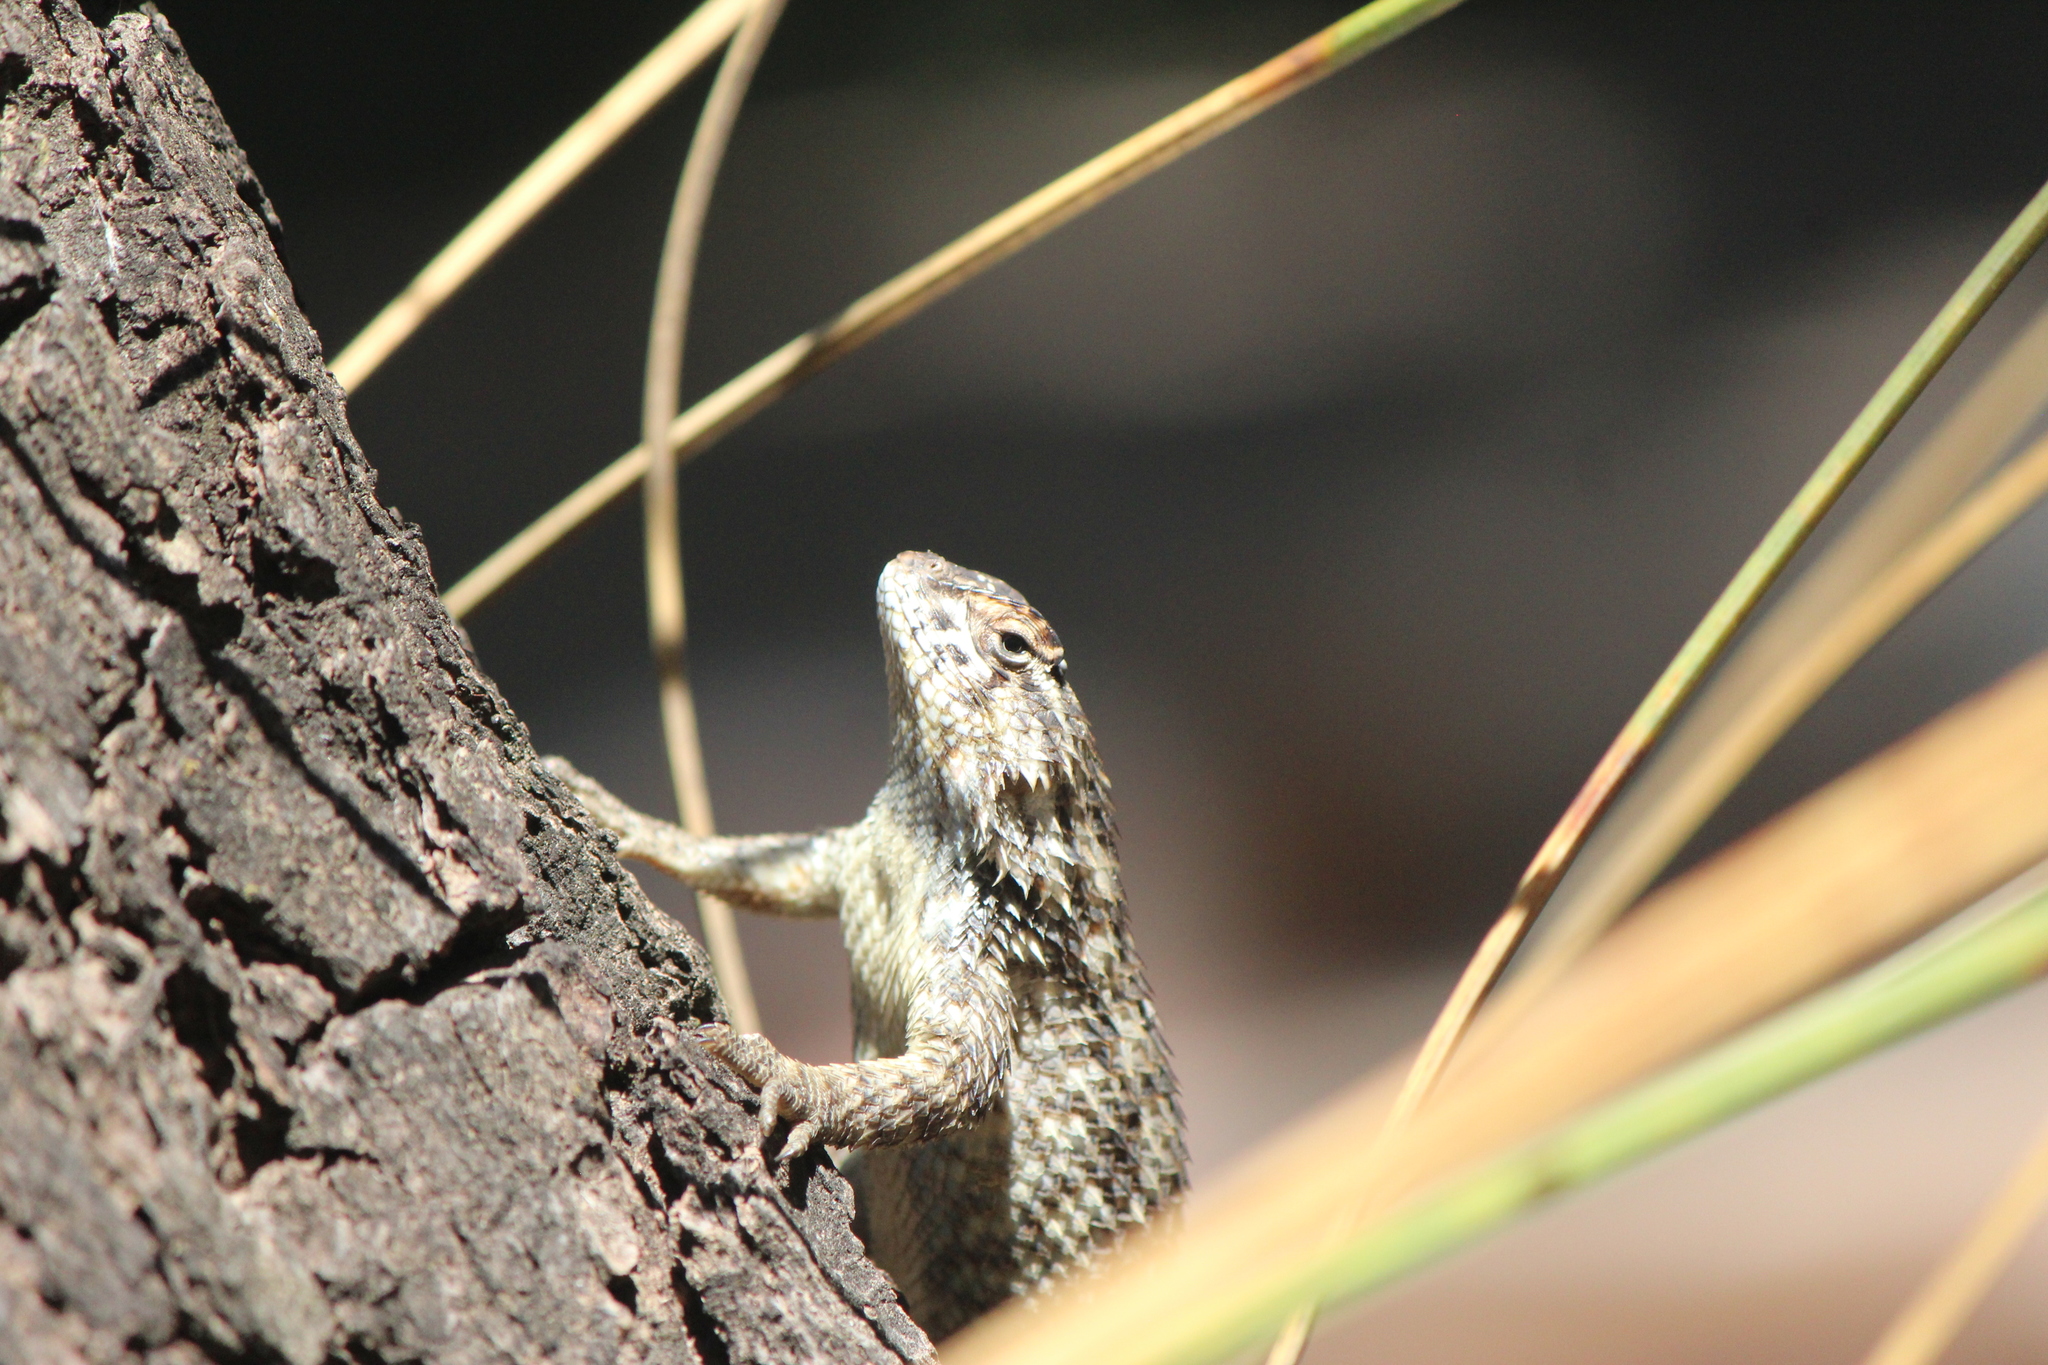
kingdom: Animalia
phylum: Chordata
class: Squamata
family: Phrynosomatidae
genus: Sceloporus
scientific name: Sceloporus spinosus
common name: Blue-spotted spiny lizard [caeruleopunctatus]
